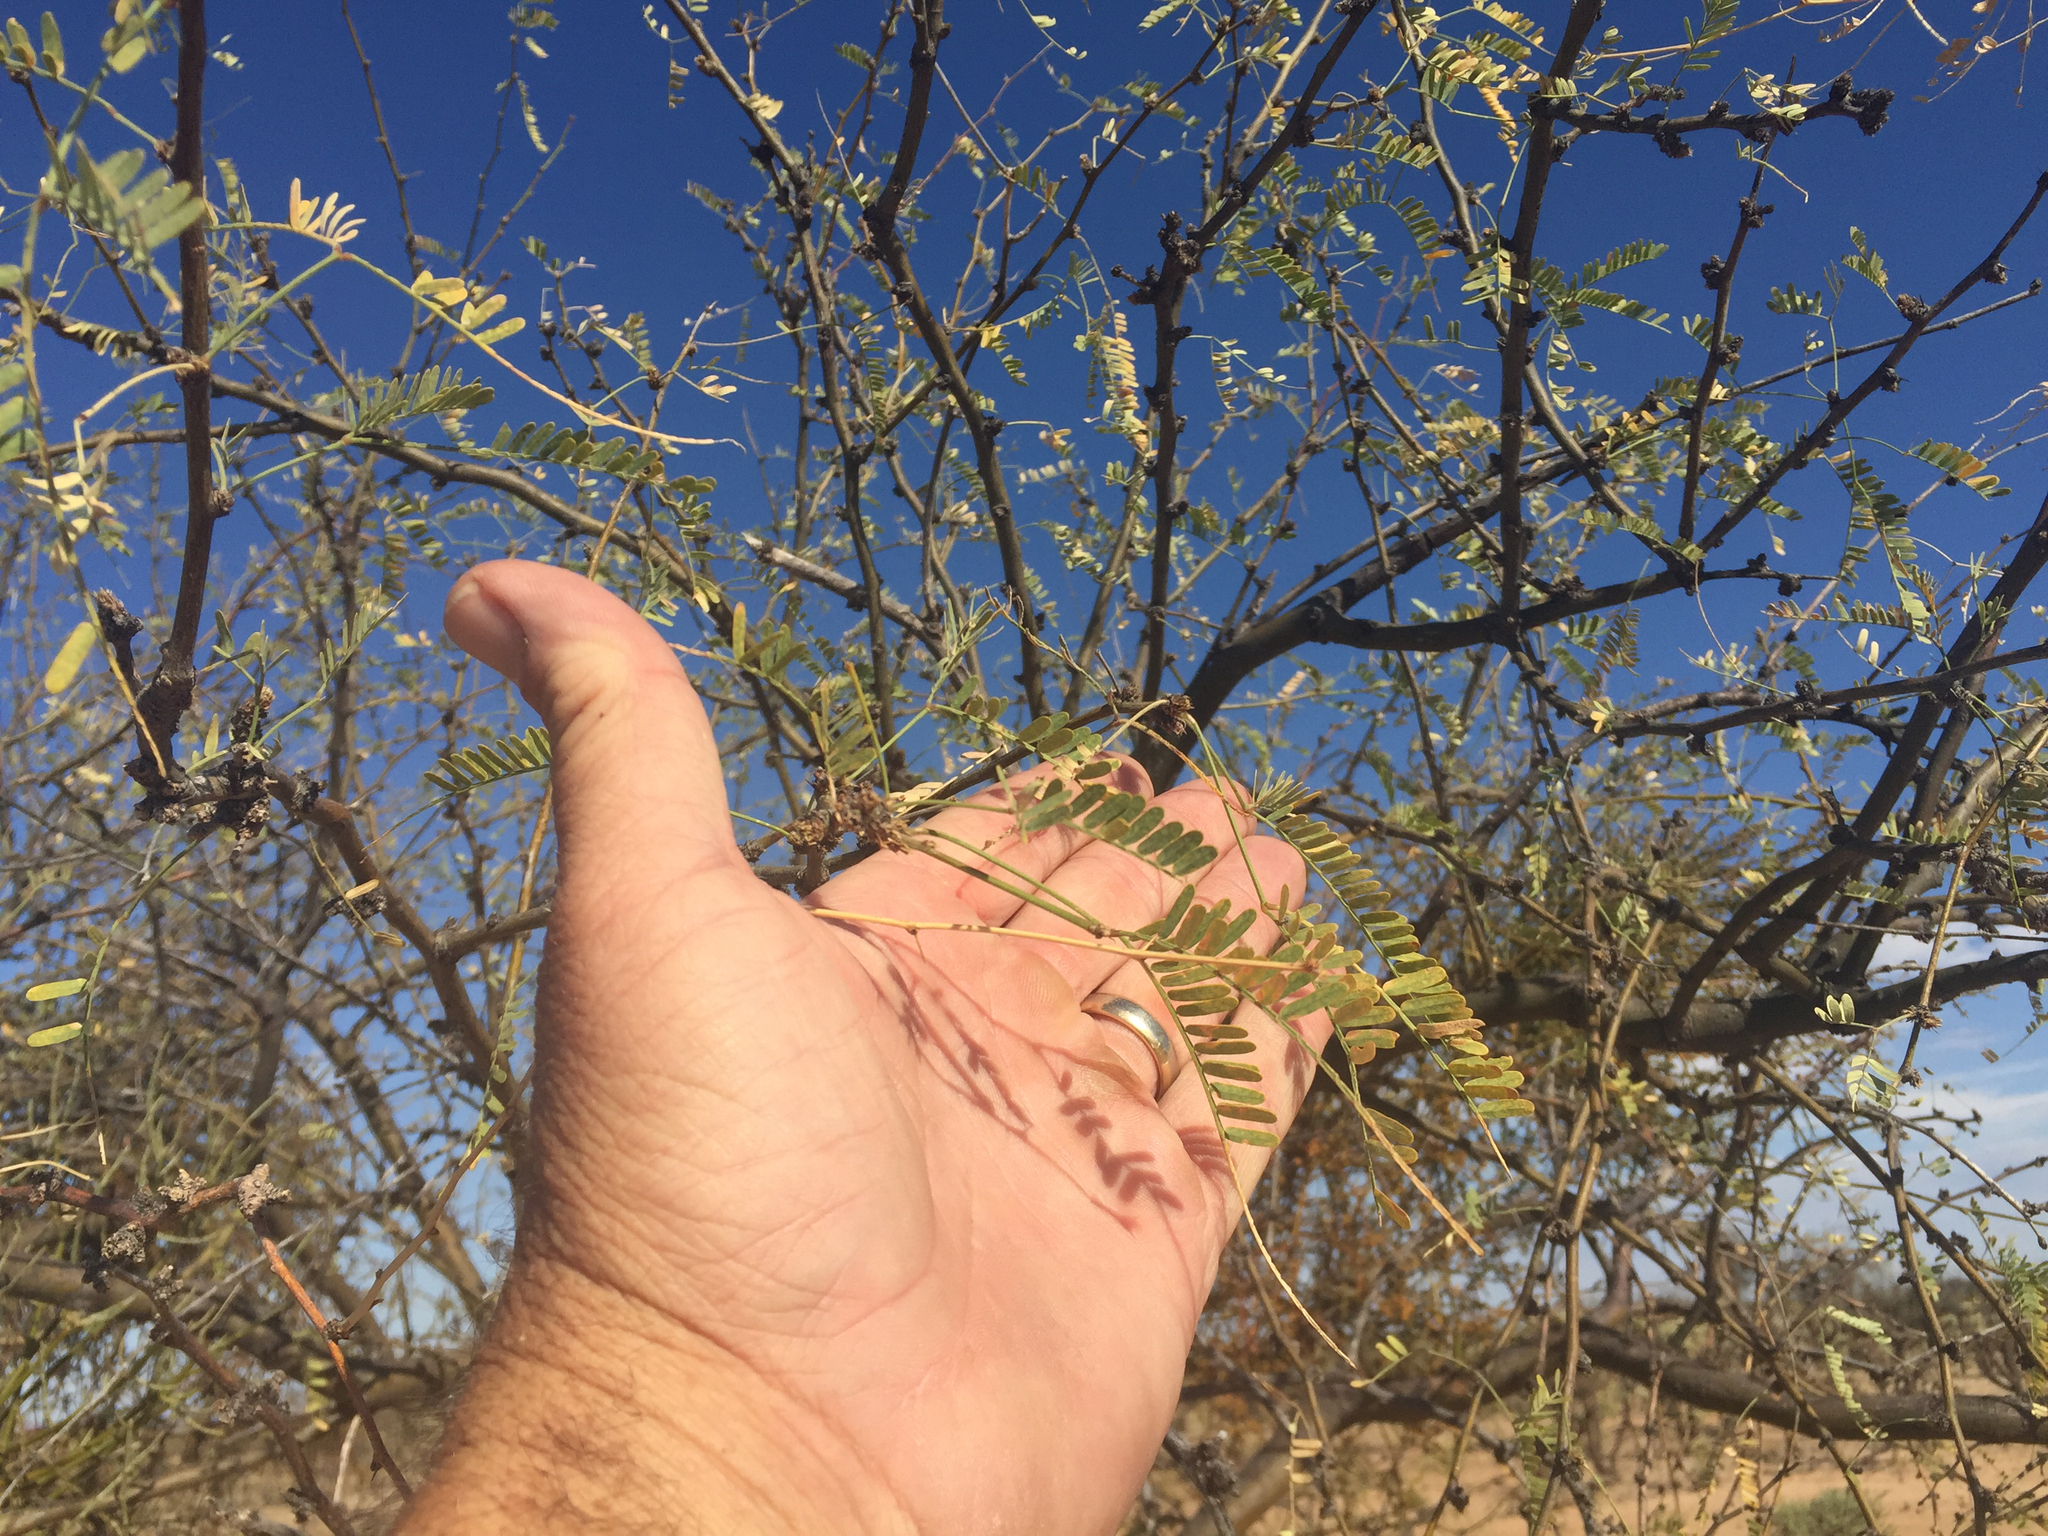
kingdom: Plantae
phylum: Tracheophyta
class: Magnoliopsida
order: Fabales
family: Fabaceae
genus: Prosopis
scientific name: Prosopis velutina
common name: Velvet mesquite
